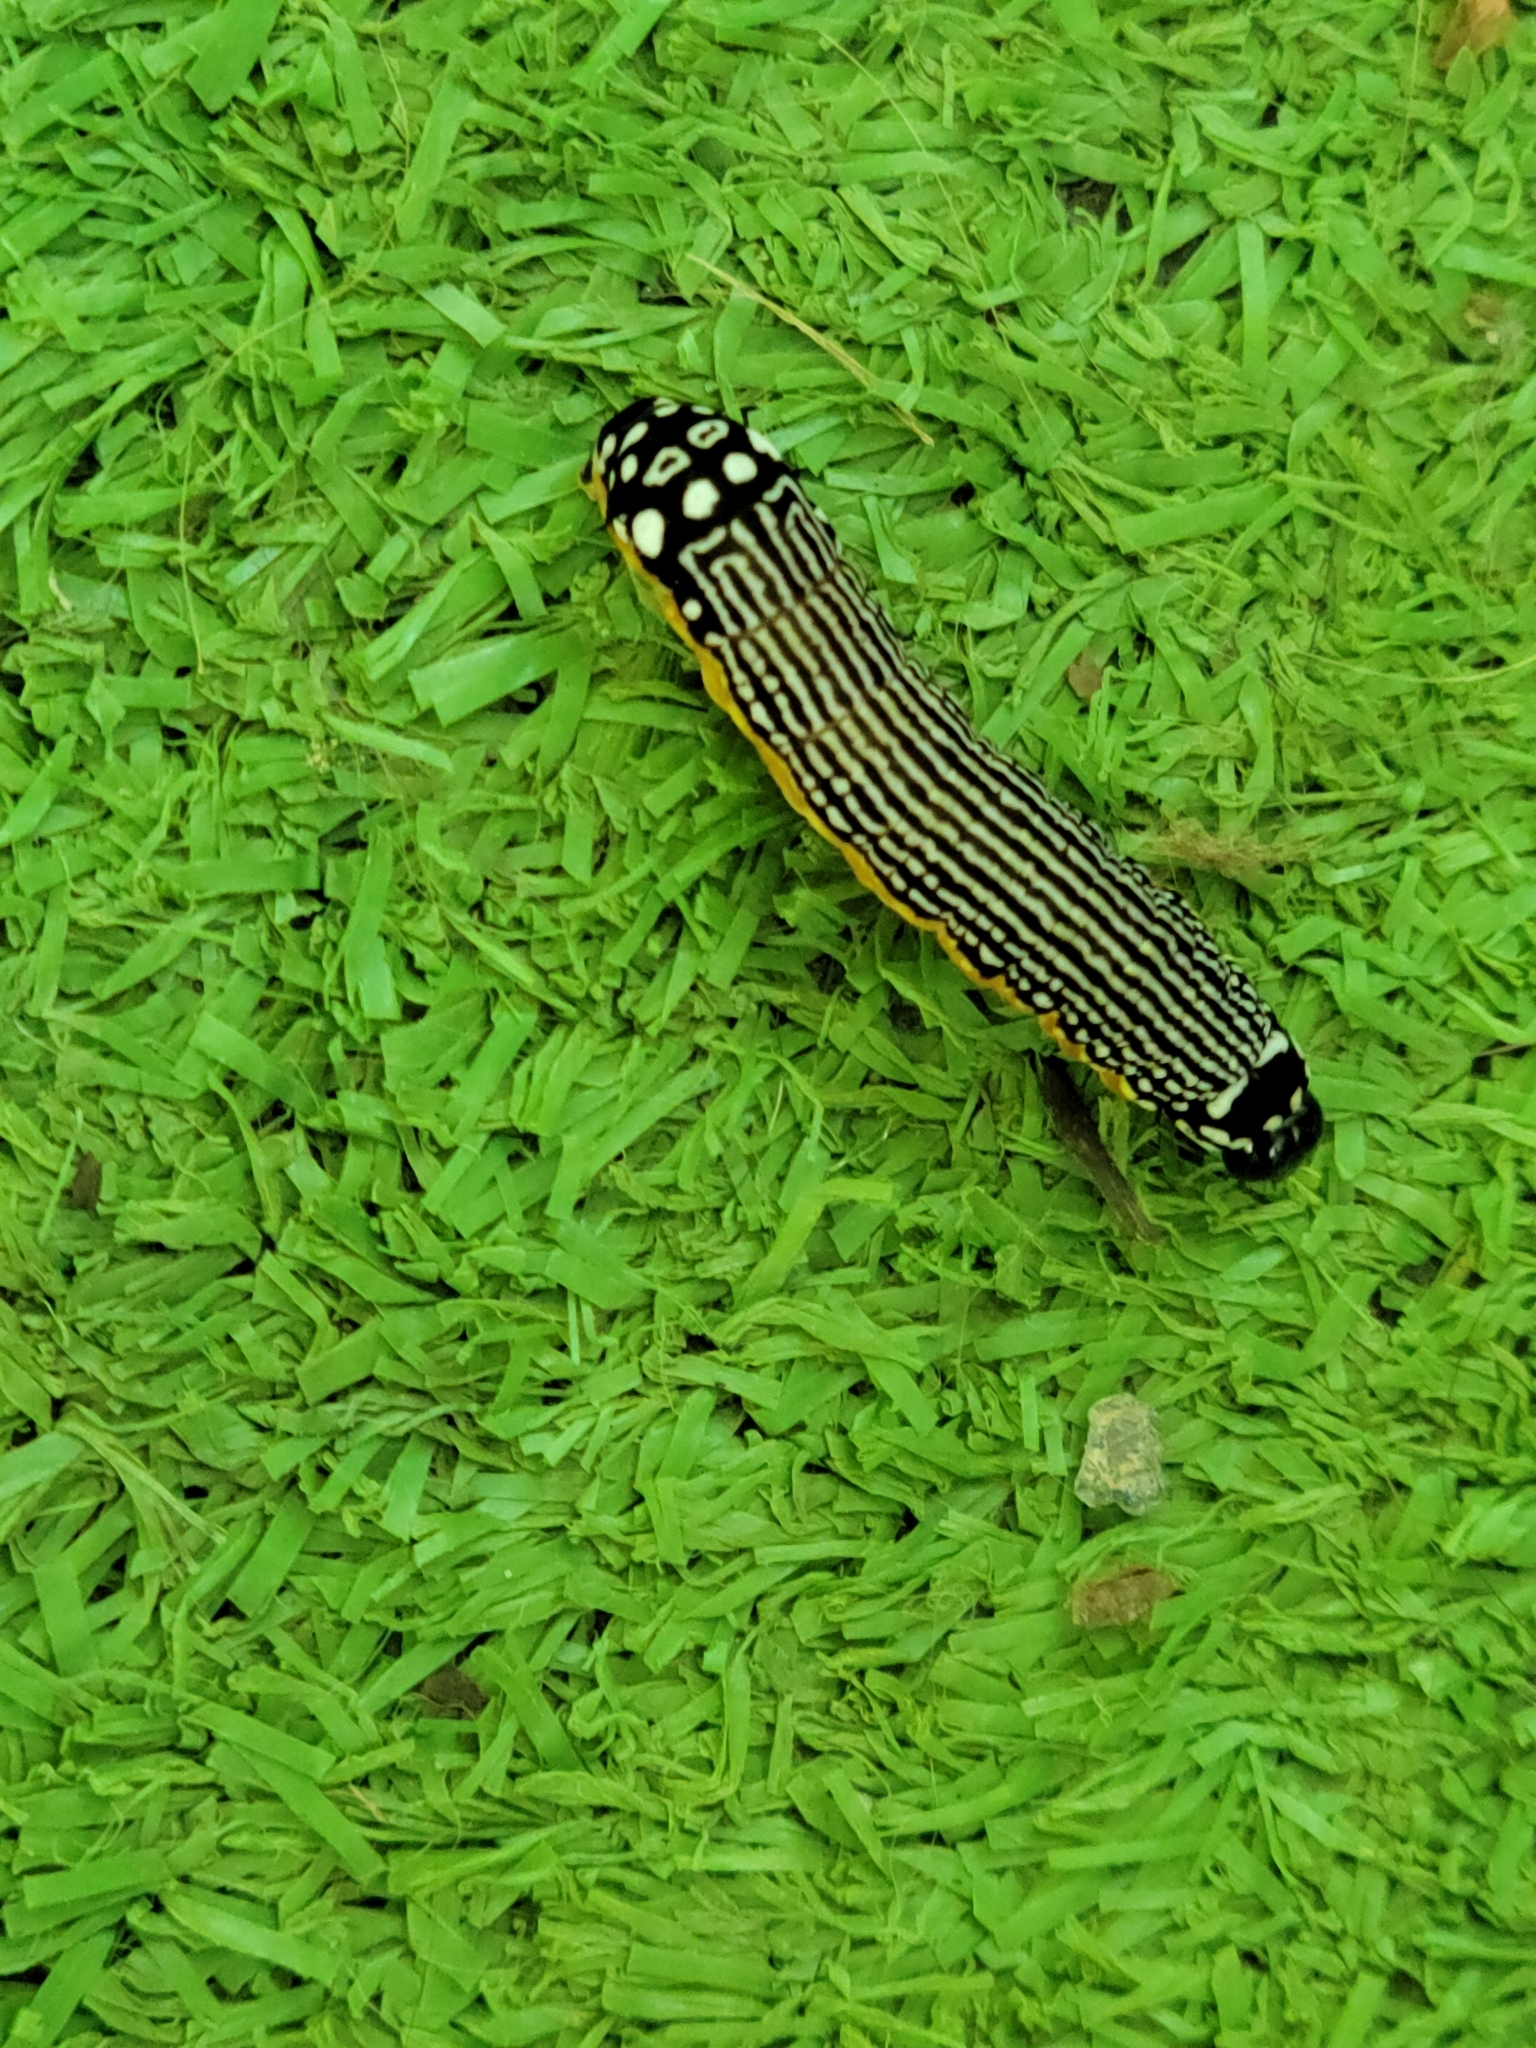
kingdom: Animalia
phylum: Arthropoda
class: Insecta
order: Lepidoptera
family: Noctuidae
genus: Phosphila
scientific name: Phosphila turbulenta
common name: Turbulent phosphila moth
